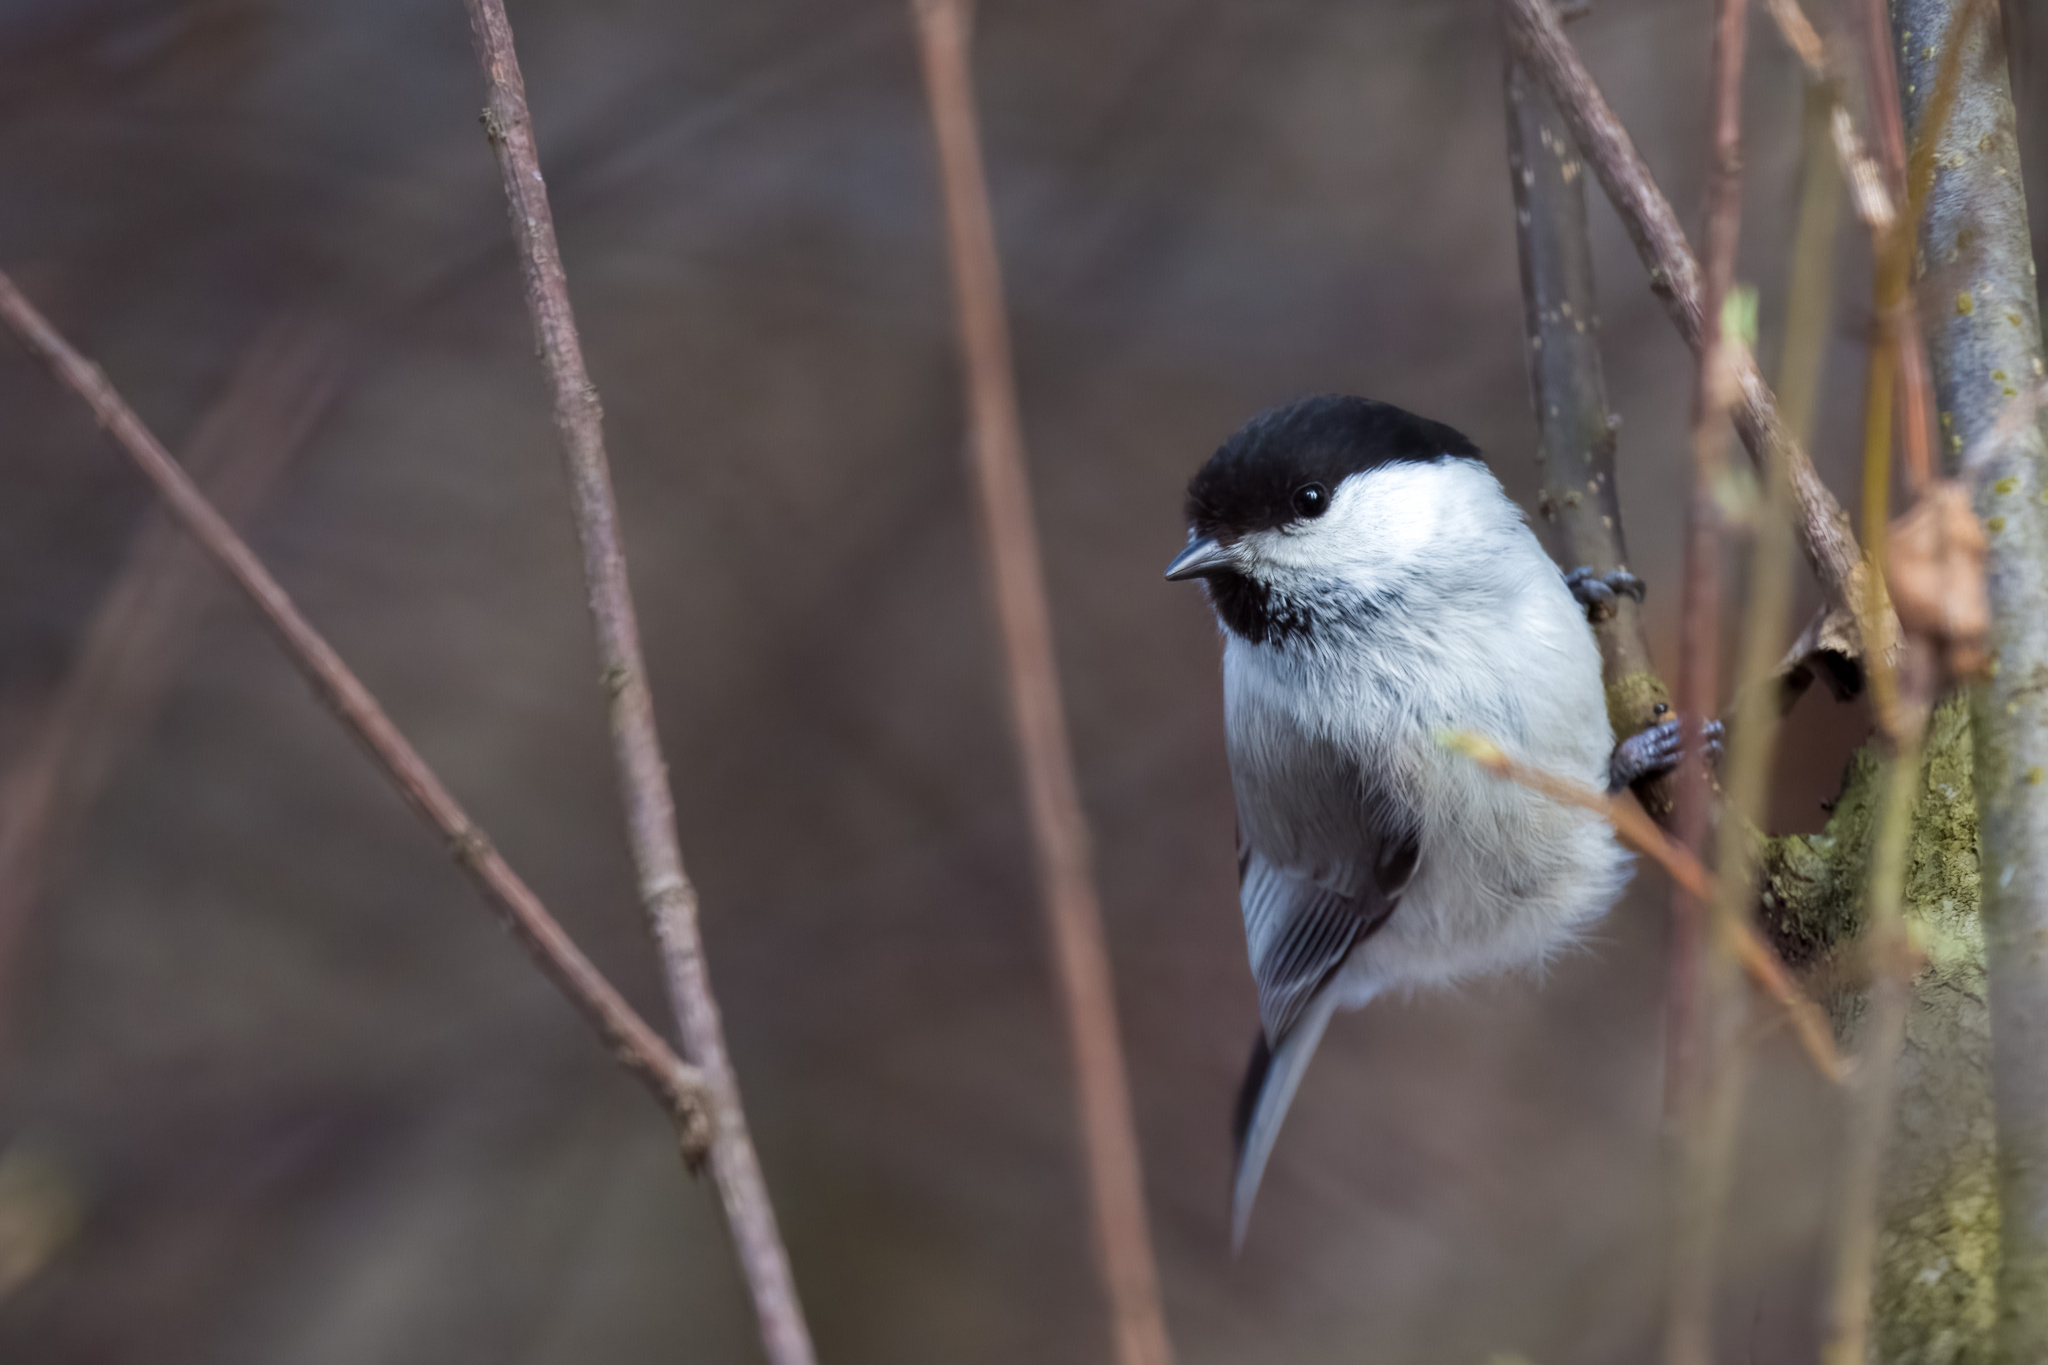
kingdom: Animalia
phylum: Chordata
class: Aves
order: Passeriformes
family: Paridae
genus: Poecile
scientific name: Poecile montanus
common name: Willow tit
